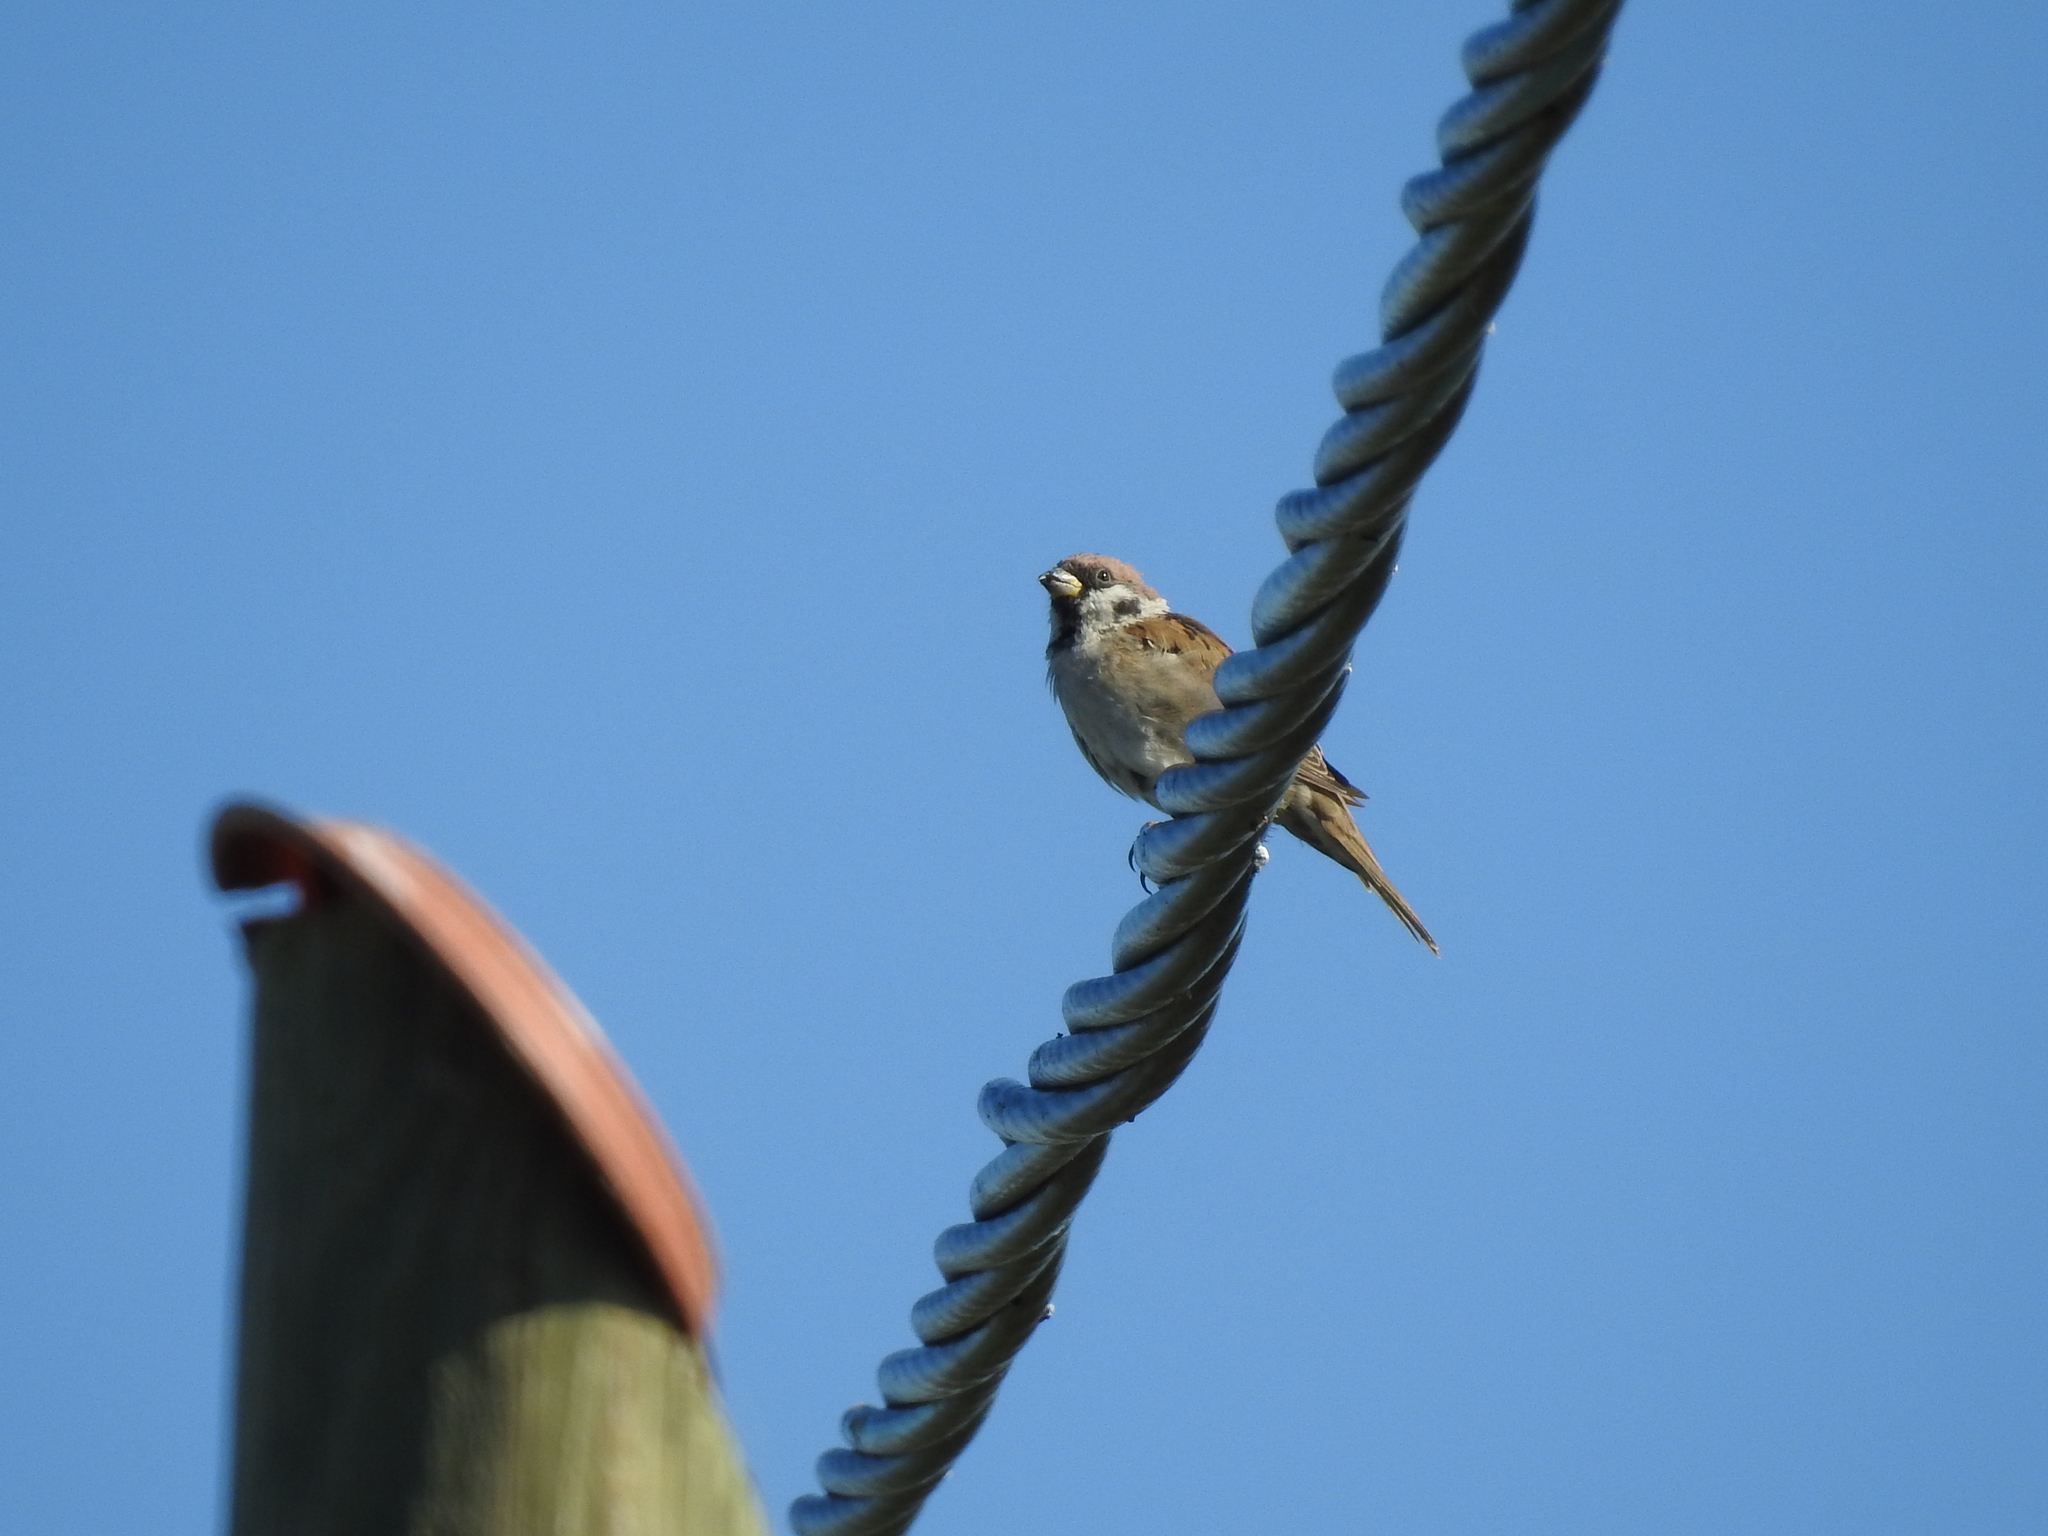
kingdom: Animalia
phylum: Chordata
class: Aves
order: Passeriformes
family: Passeridae
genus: Passer
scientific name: Passer montanus
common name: Eurasian tree sparrow
